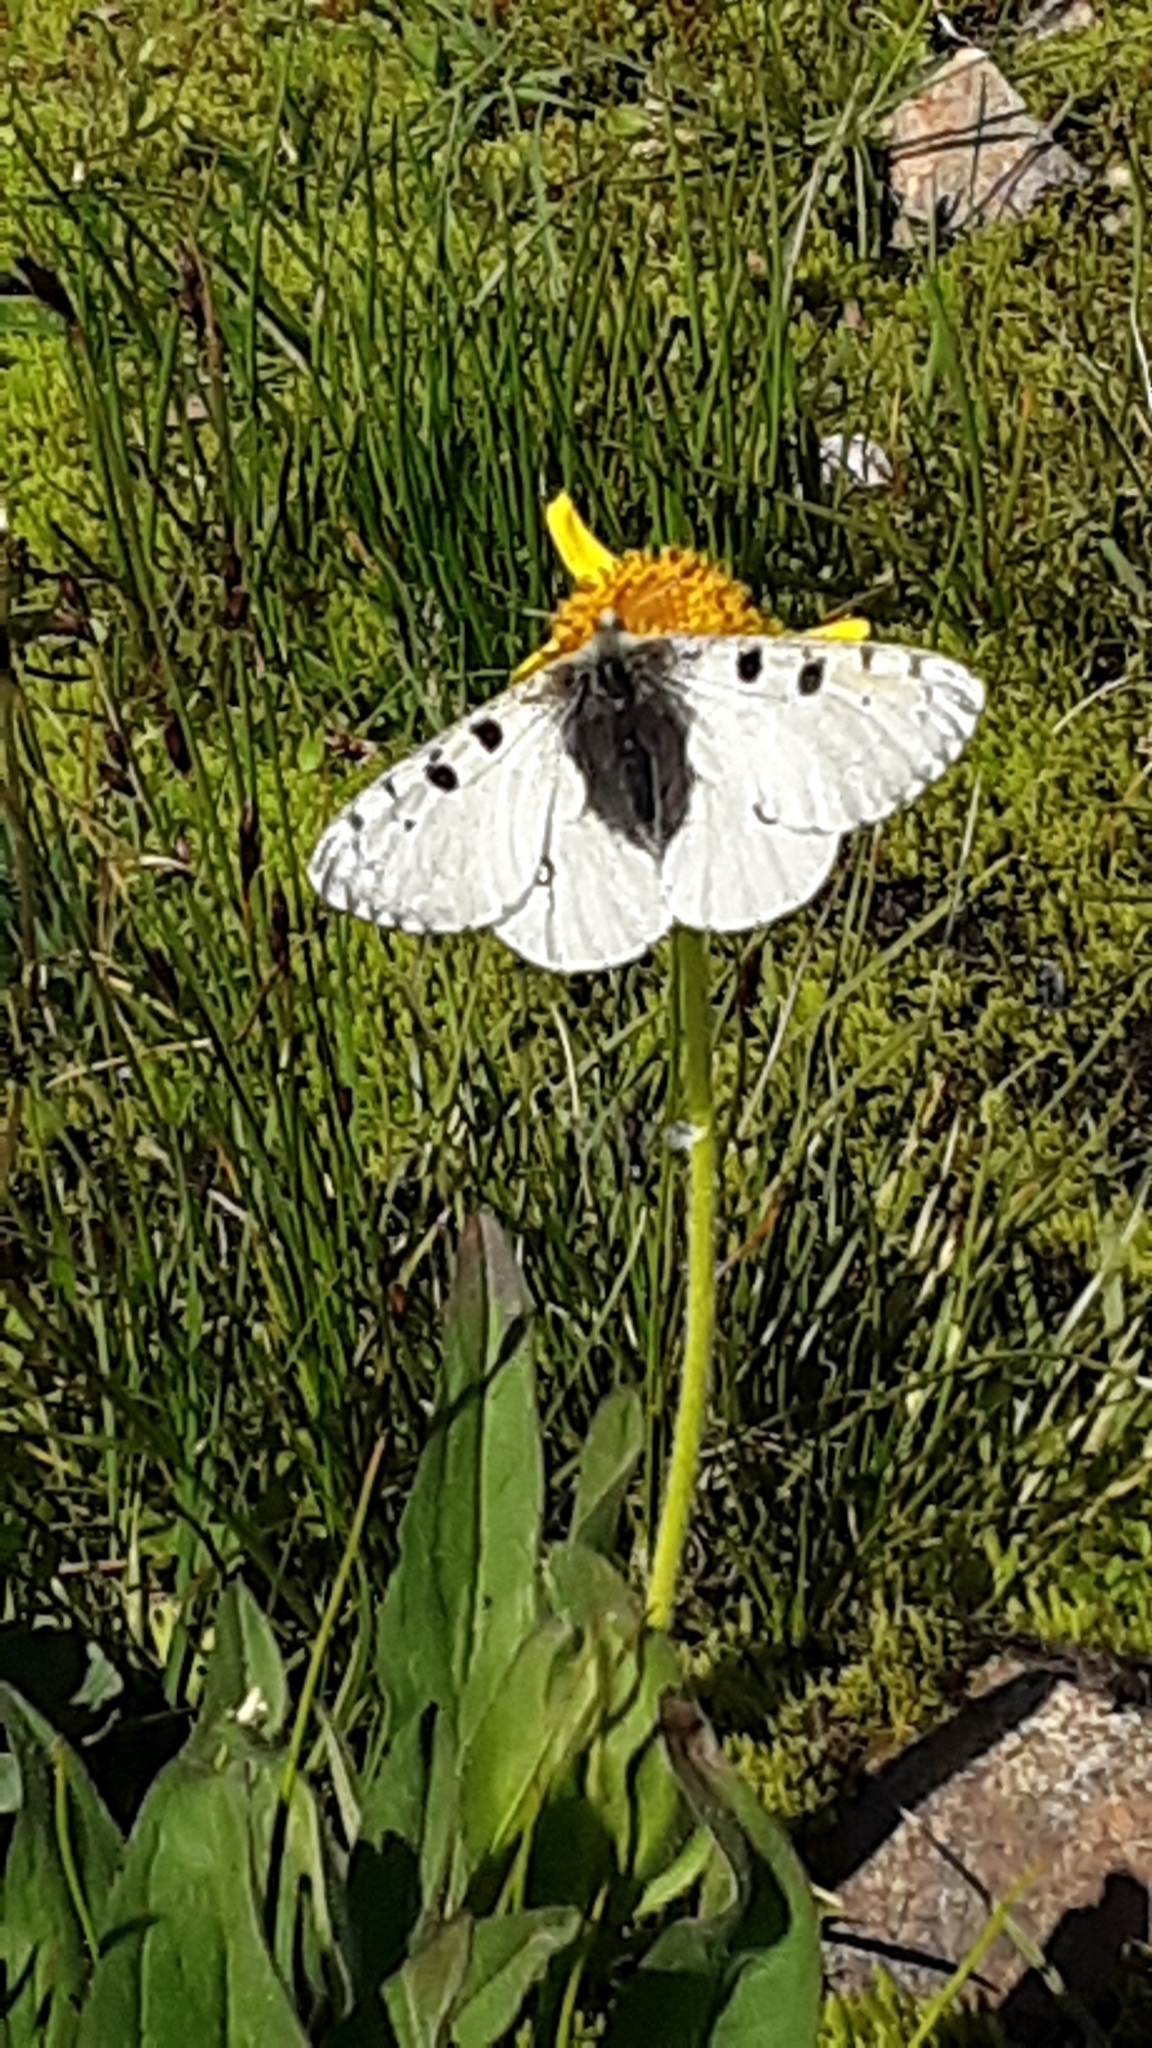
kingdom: Animalia
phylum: Arthropoda
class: Insecta
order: Lepidoptera
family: Papilionidae
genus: Parnassius
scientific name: Parnassius smintheus
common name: Mountain parnassian
